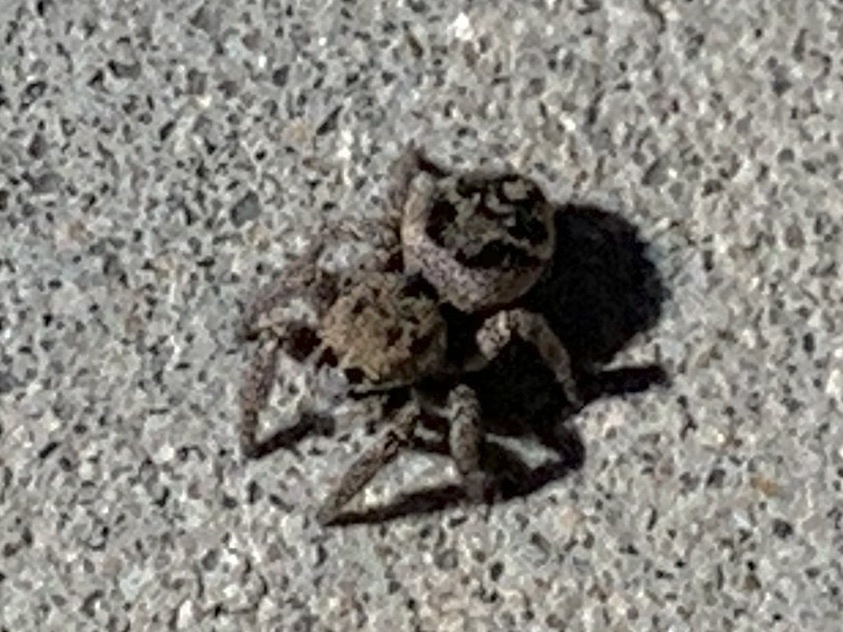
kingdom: Animalia
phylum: Arthropoda
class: Arachnida
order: Araneae
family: Salticidae
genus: Habronattus
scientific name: Habronattus
